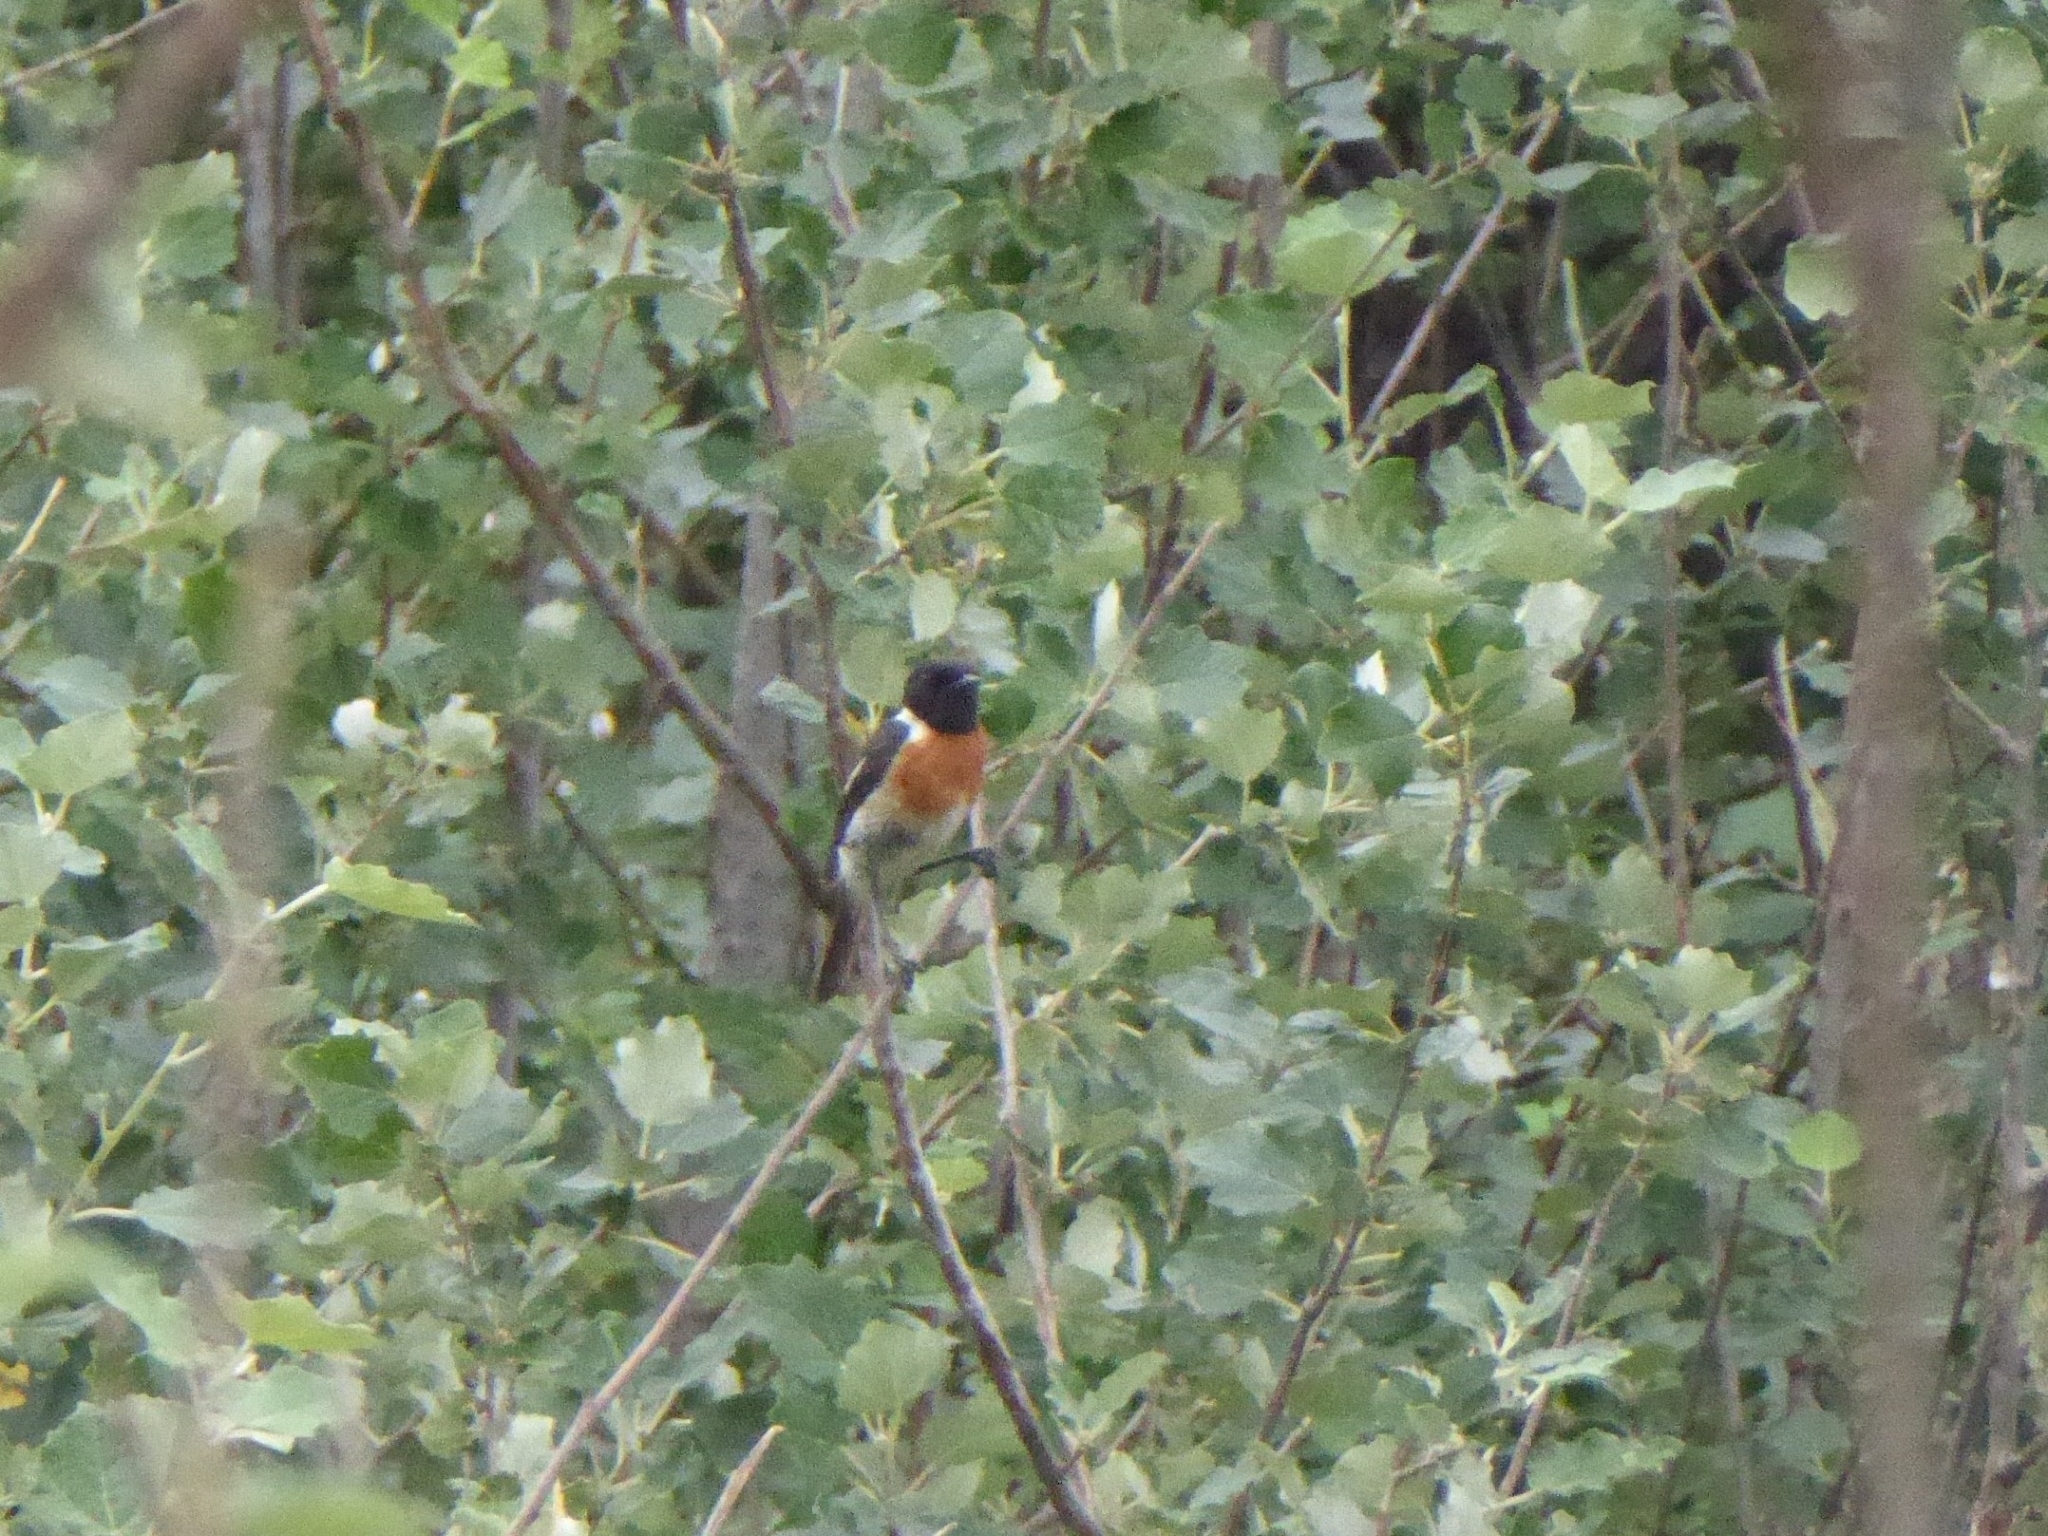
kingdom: Animalia
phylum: Chordata
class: Aves
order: Passeriformes
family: Muscicapidae
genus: Saxicola
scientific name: Saxicola torquatus
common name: African stonechat
